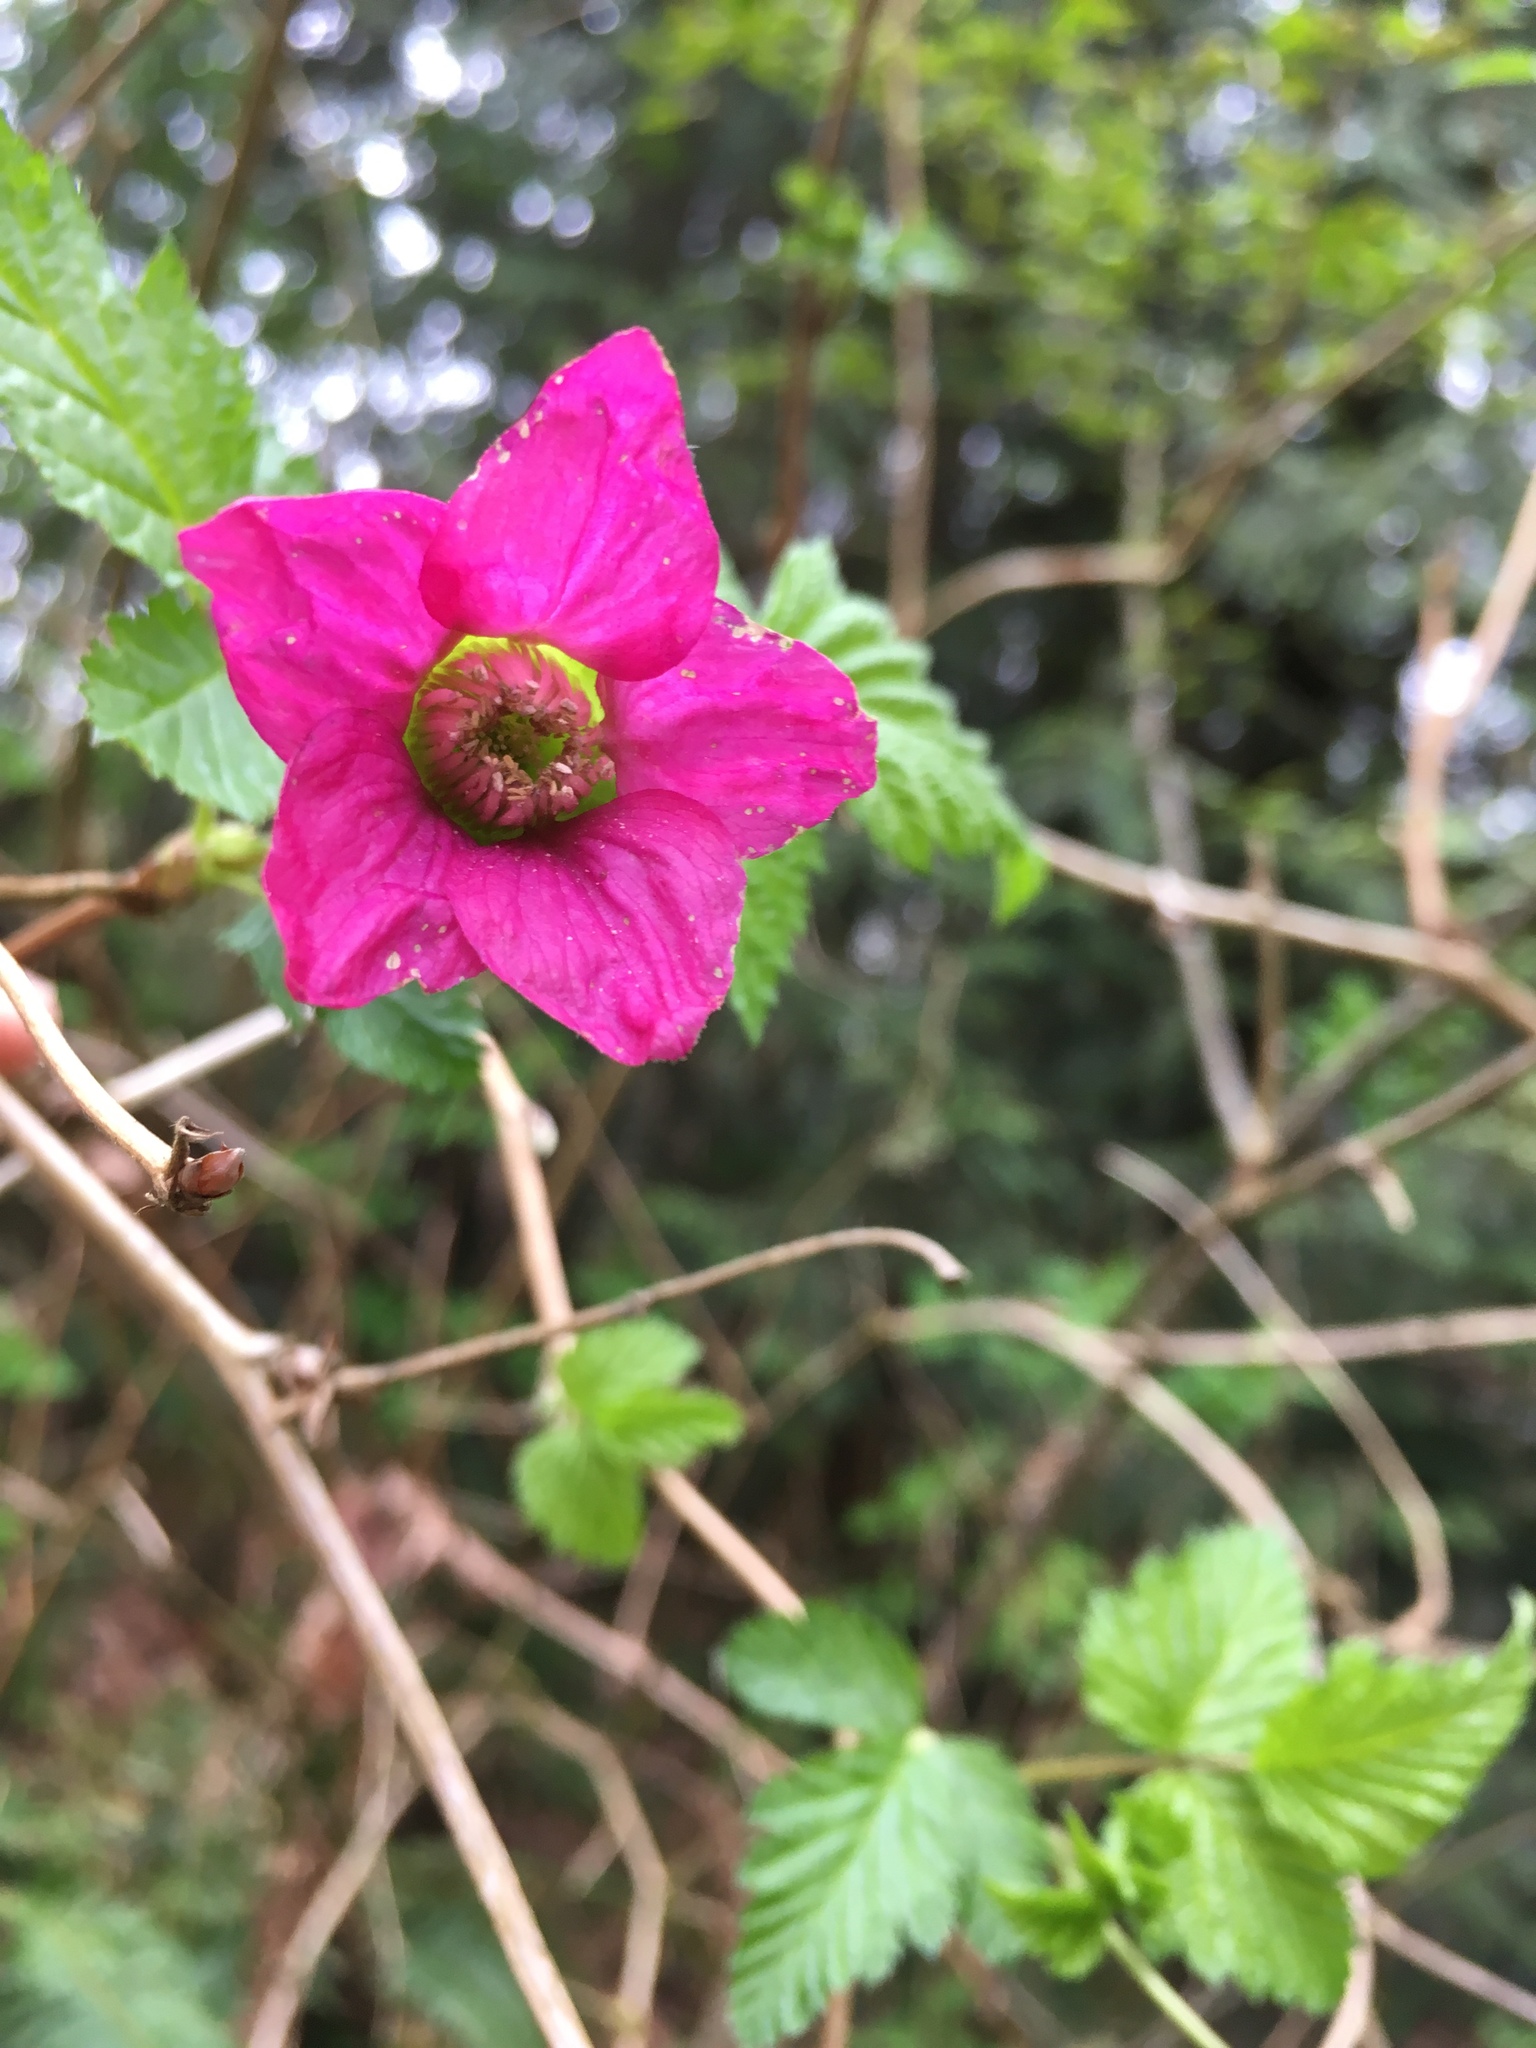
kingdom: Plantae
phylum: Tracheophyta
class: Magnoliopsida
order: Rosales
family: Rosaceae
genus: Rubus
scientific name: Rubus spectabilis
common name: Salmonberry
